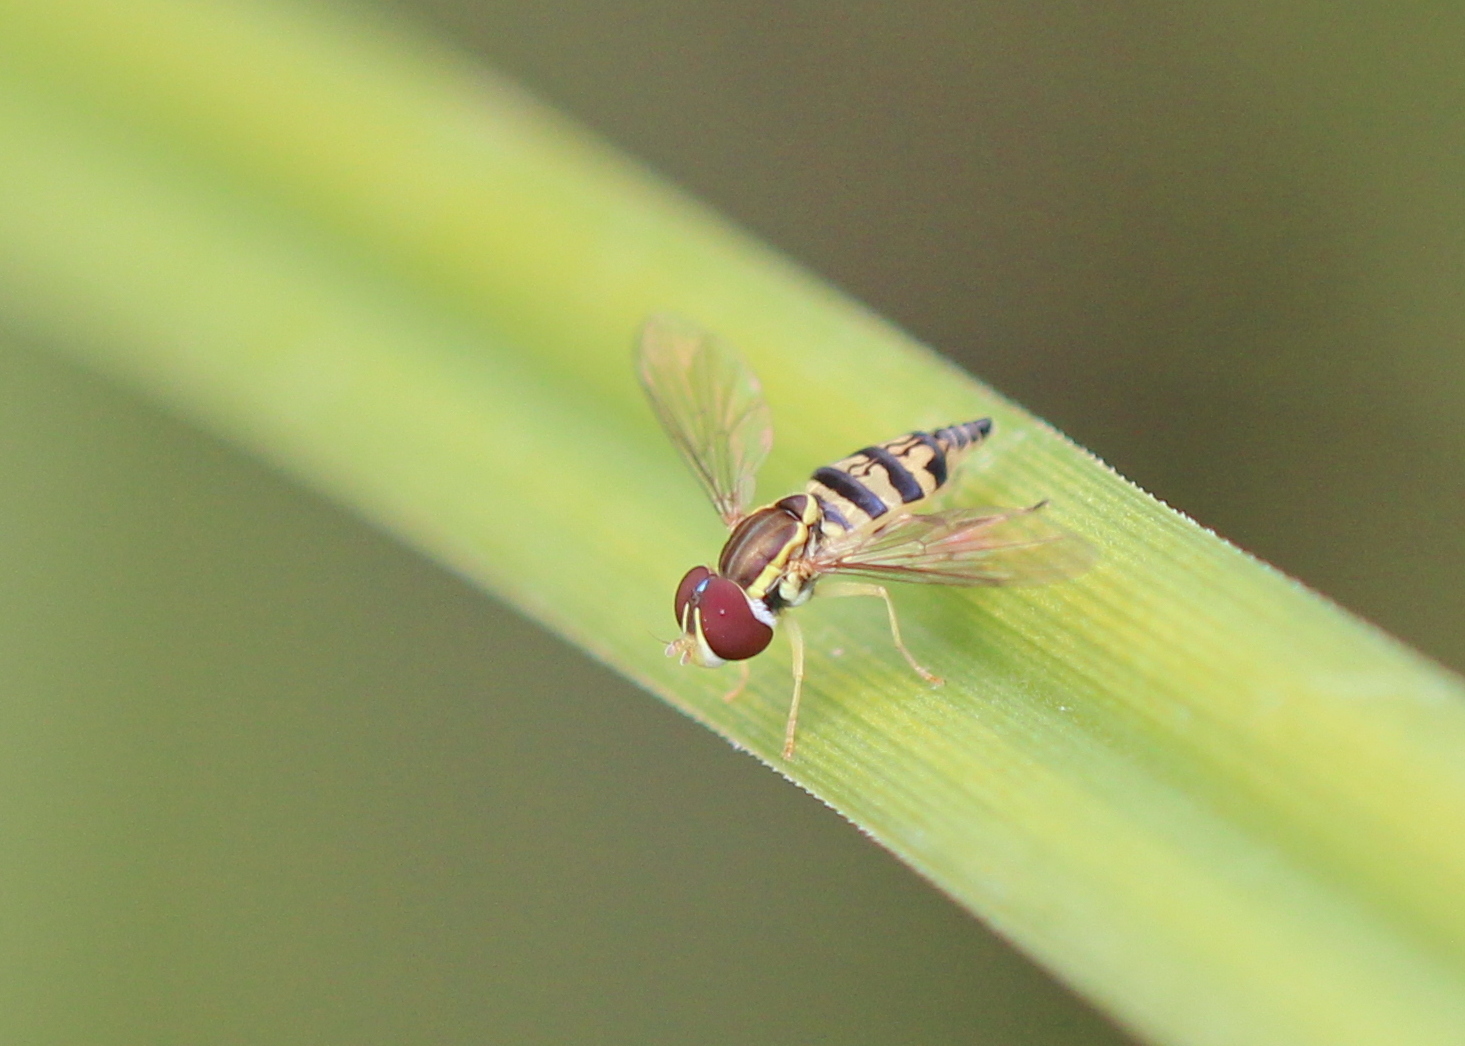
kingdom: Animalia
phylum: Arthropoda
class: Insecta
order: Diptera
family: Syrphidae
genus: Toxomerus
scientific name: Toxomerus geminatus
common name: Eastern calligrapher
